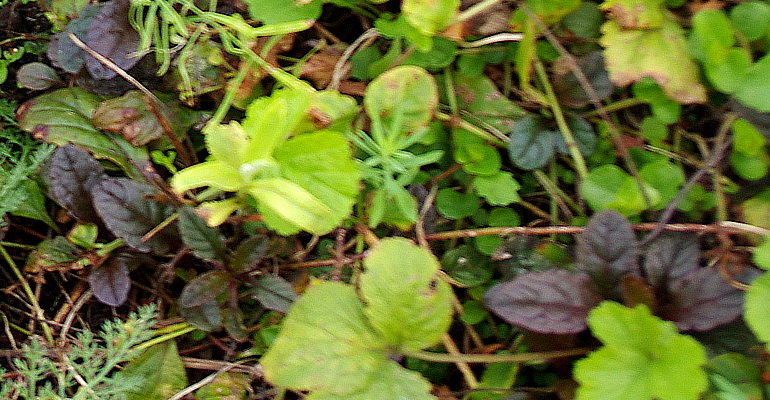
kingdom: Plantae
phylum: Tracheophyta
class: Magnoliopsida
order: Lamiales
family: Lamiaceae
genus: Ajuga
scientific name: Ajuga reptans
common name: Bugle
